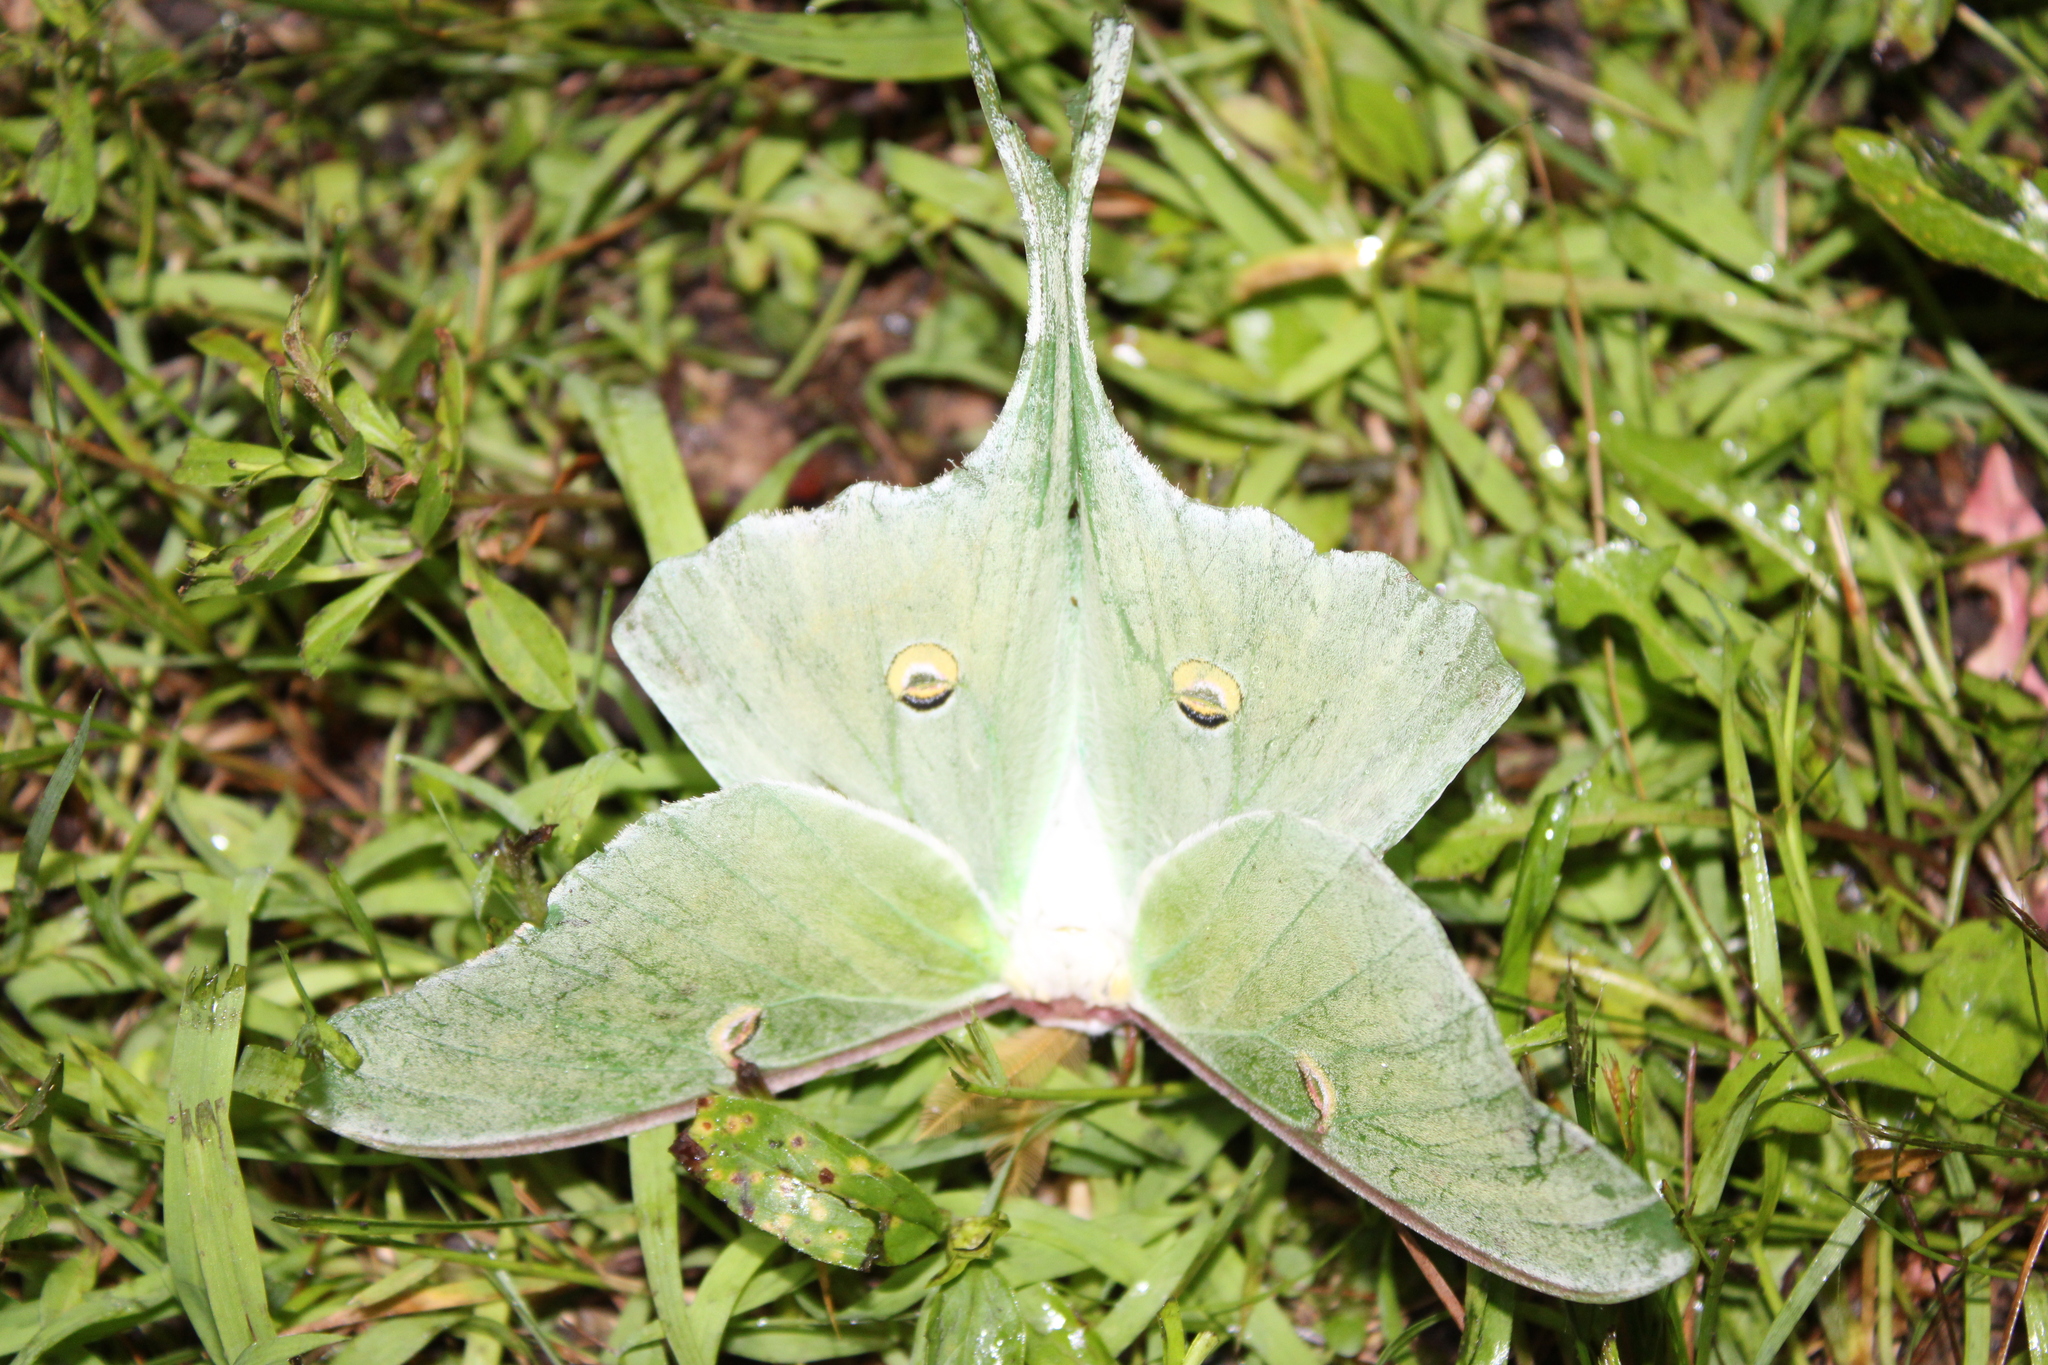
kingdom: Animalia
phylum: Arthropoda
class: Insecta
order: Lepidoptera
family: Saturniidae
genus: Actias
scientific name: Actias luna
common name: Luna moth
